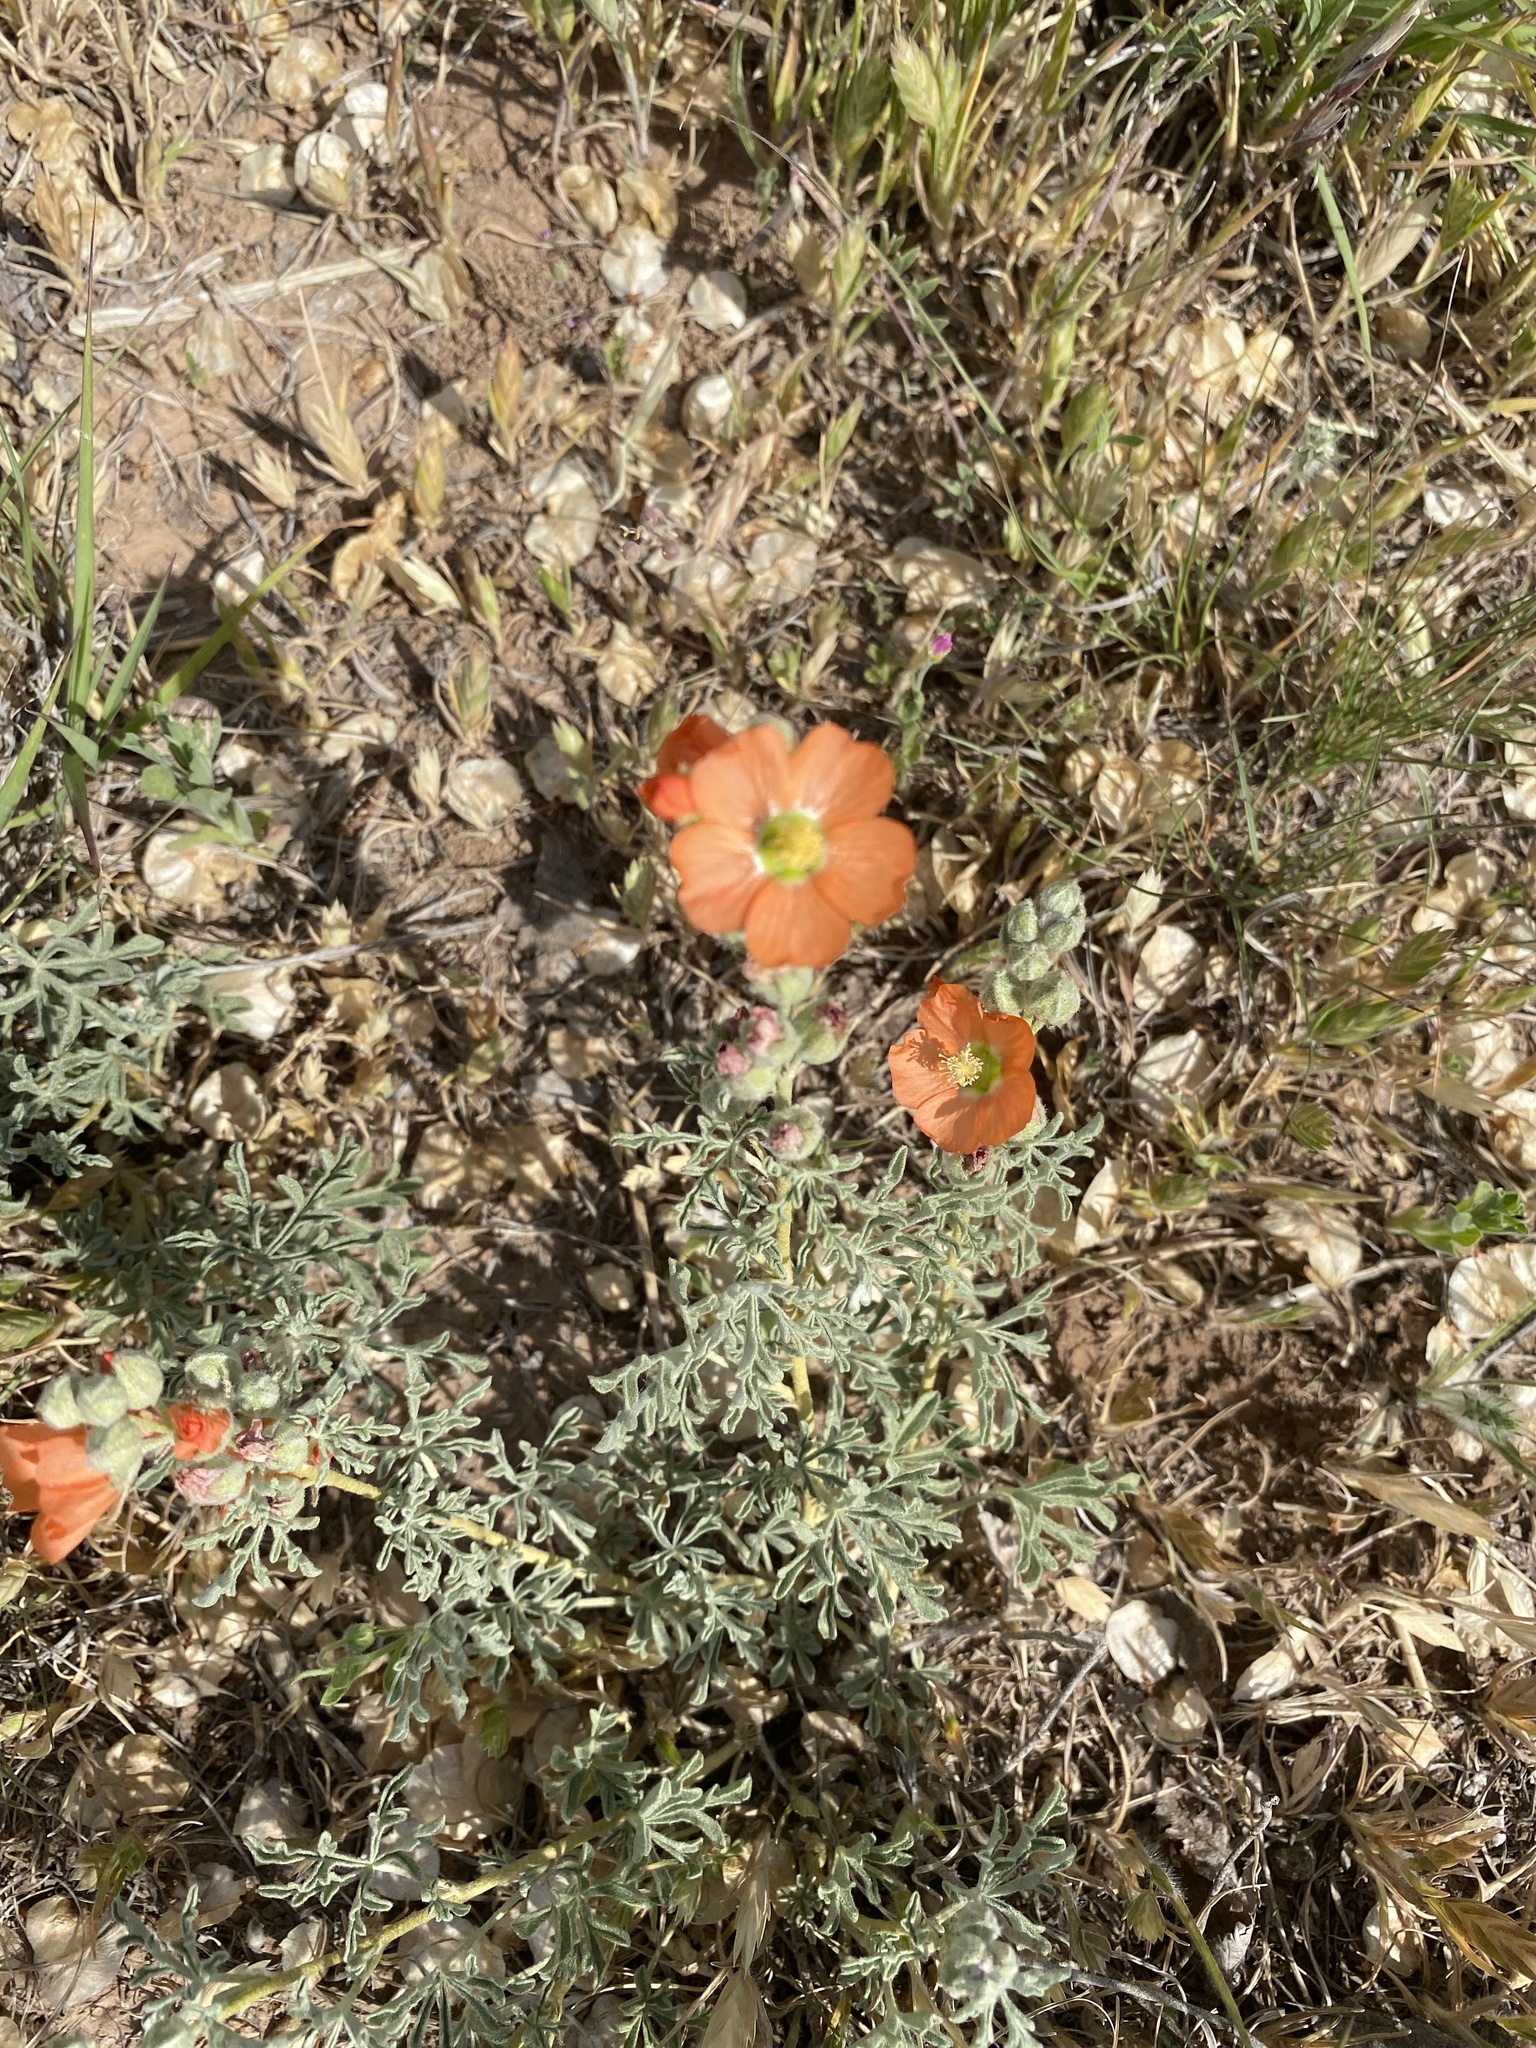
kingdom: Plantae
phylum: Tracheophyta
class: Magnoliopsida
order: Malvales
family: Malvaceae
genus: Sphaeralcea
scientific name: Sphaeralcea coccinea
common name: Moss-rose
